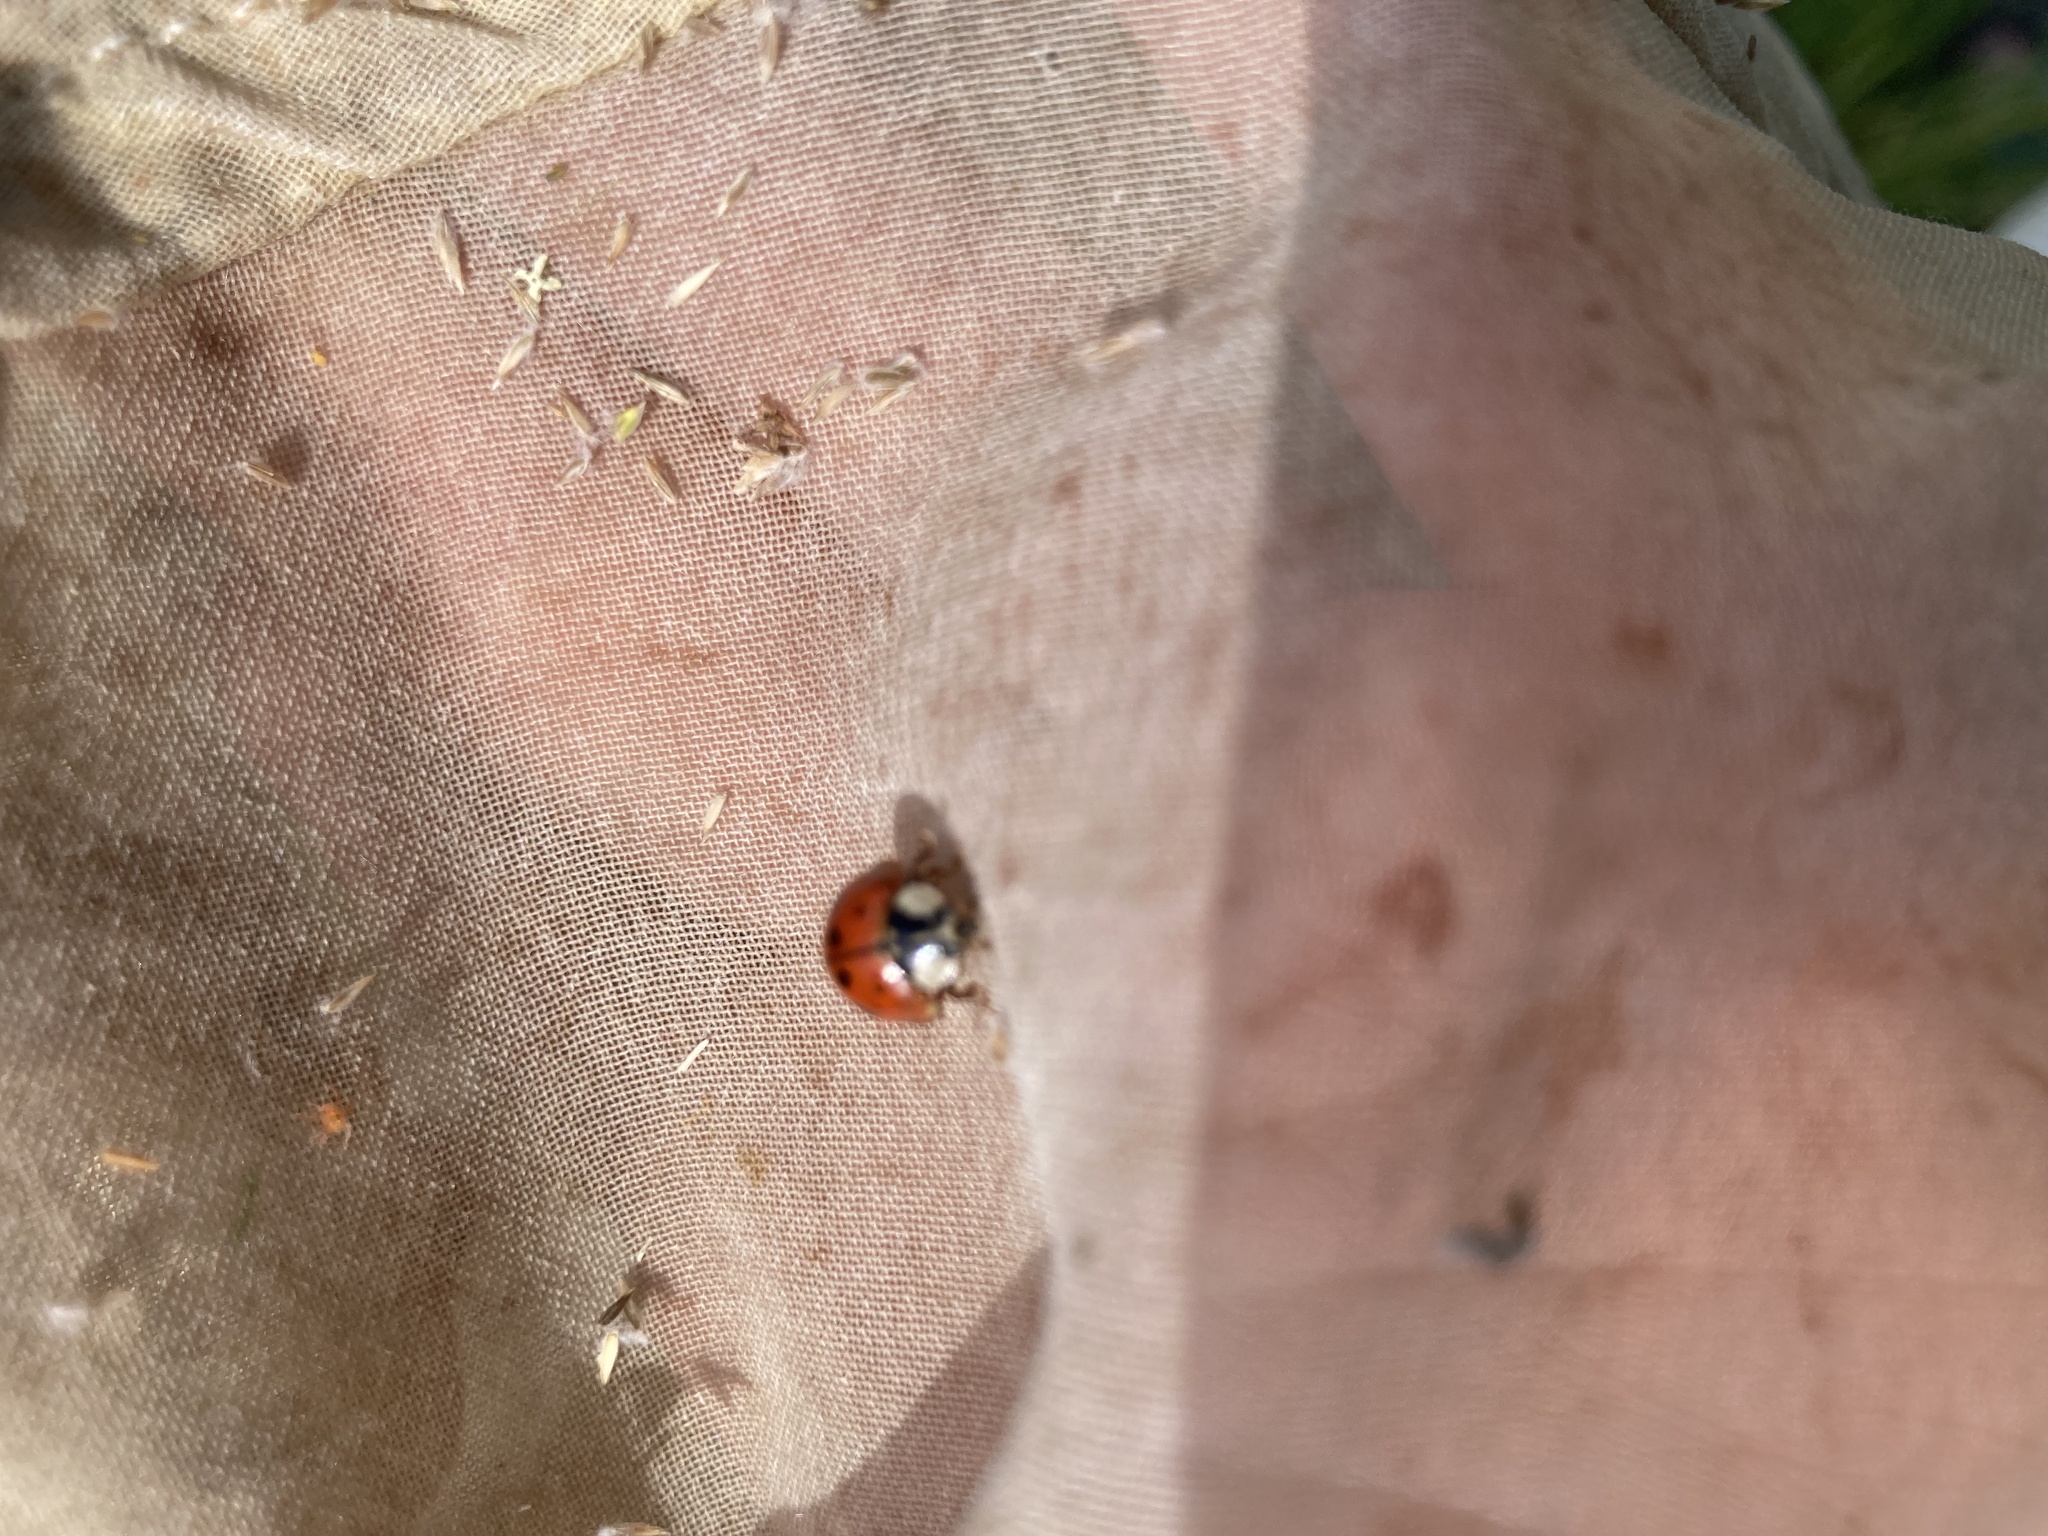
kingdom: Animalia
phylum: Arthropoda
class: Insecta
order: Coleoptera
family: Coccinellidae
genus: Harmonia
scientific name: Harmonia axyridis
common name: Harlequin ladybird
